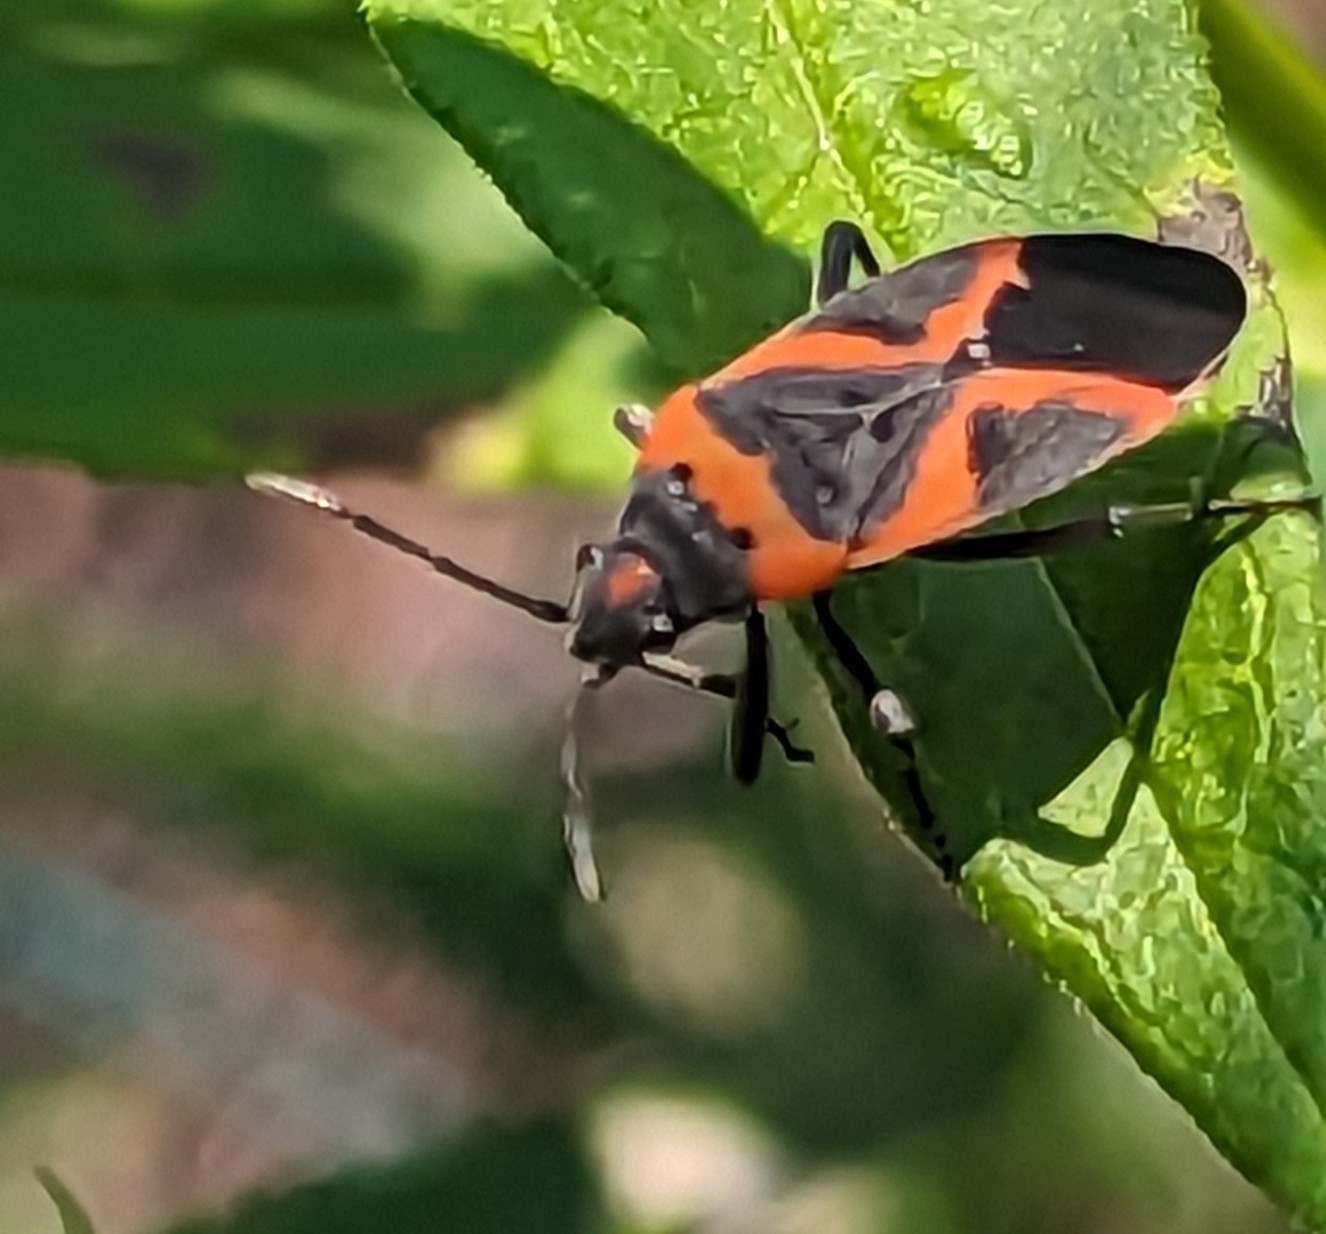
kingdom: Animalia
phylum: Arthropoda
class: Insecta
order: Hemiptera
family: Lygaeidae
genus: Lygaeus
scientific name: Lygaeus kalmii
